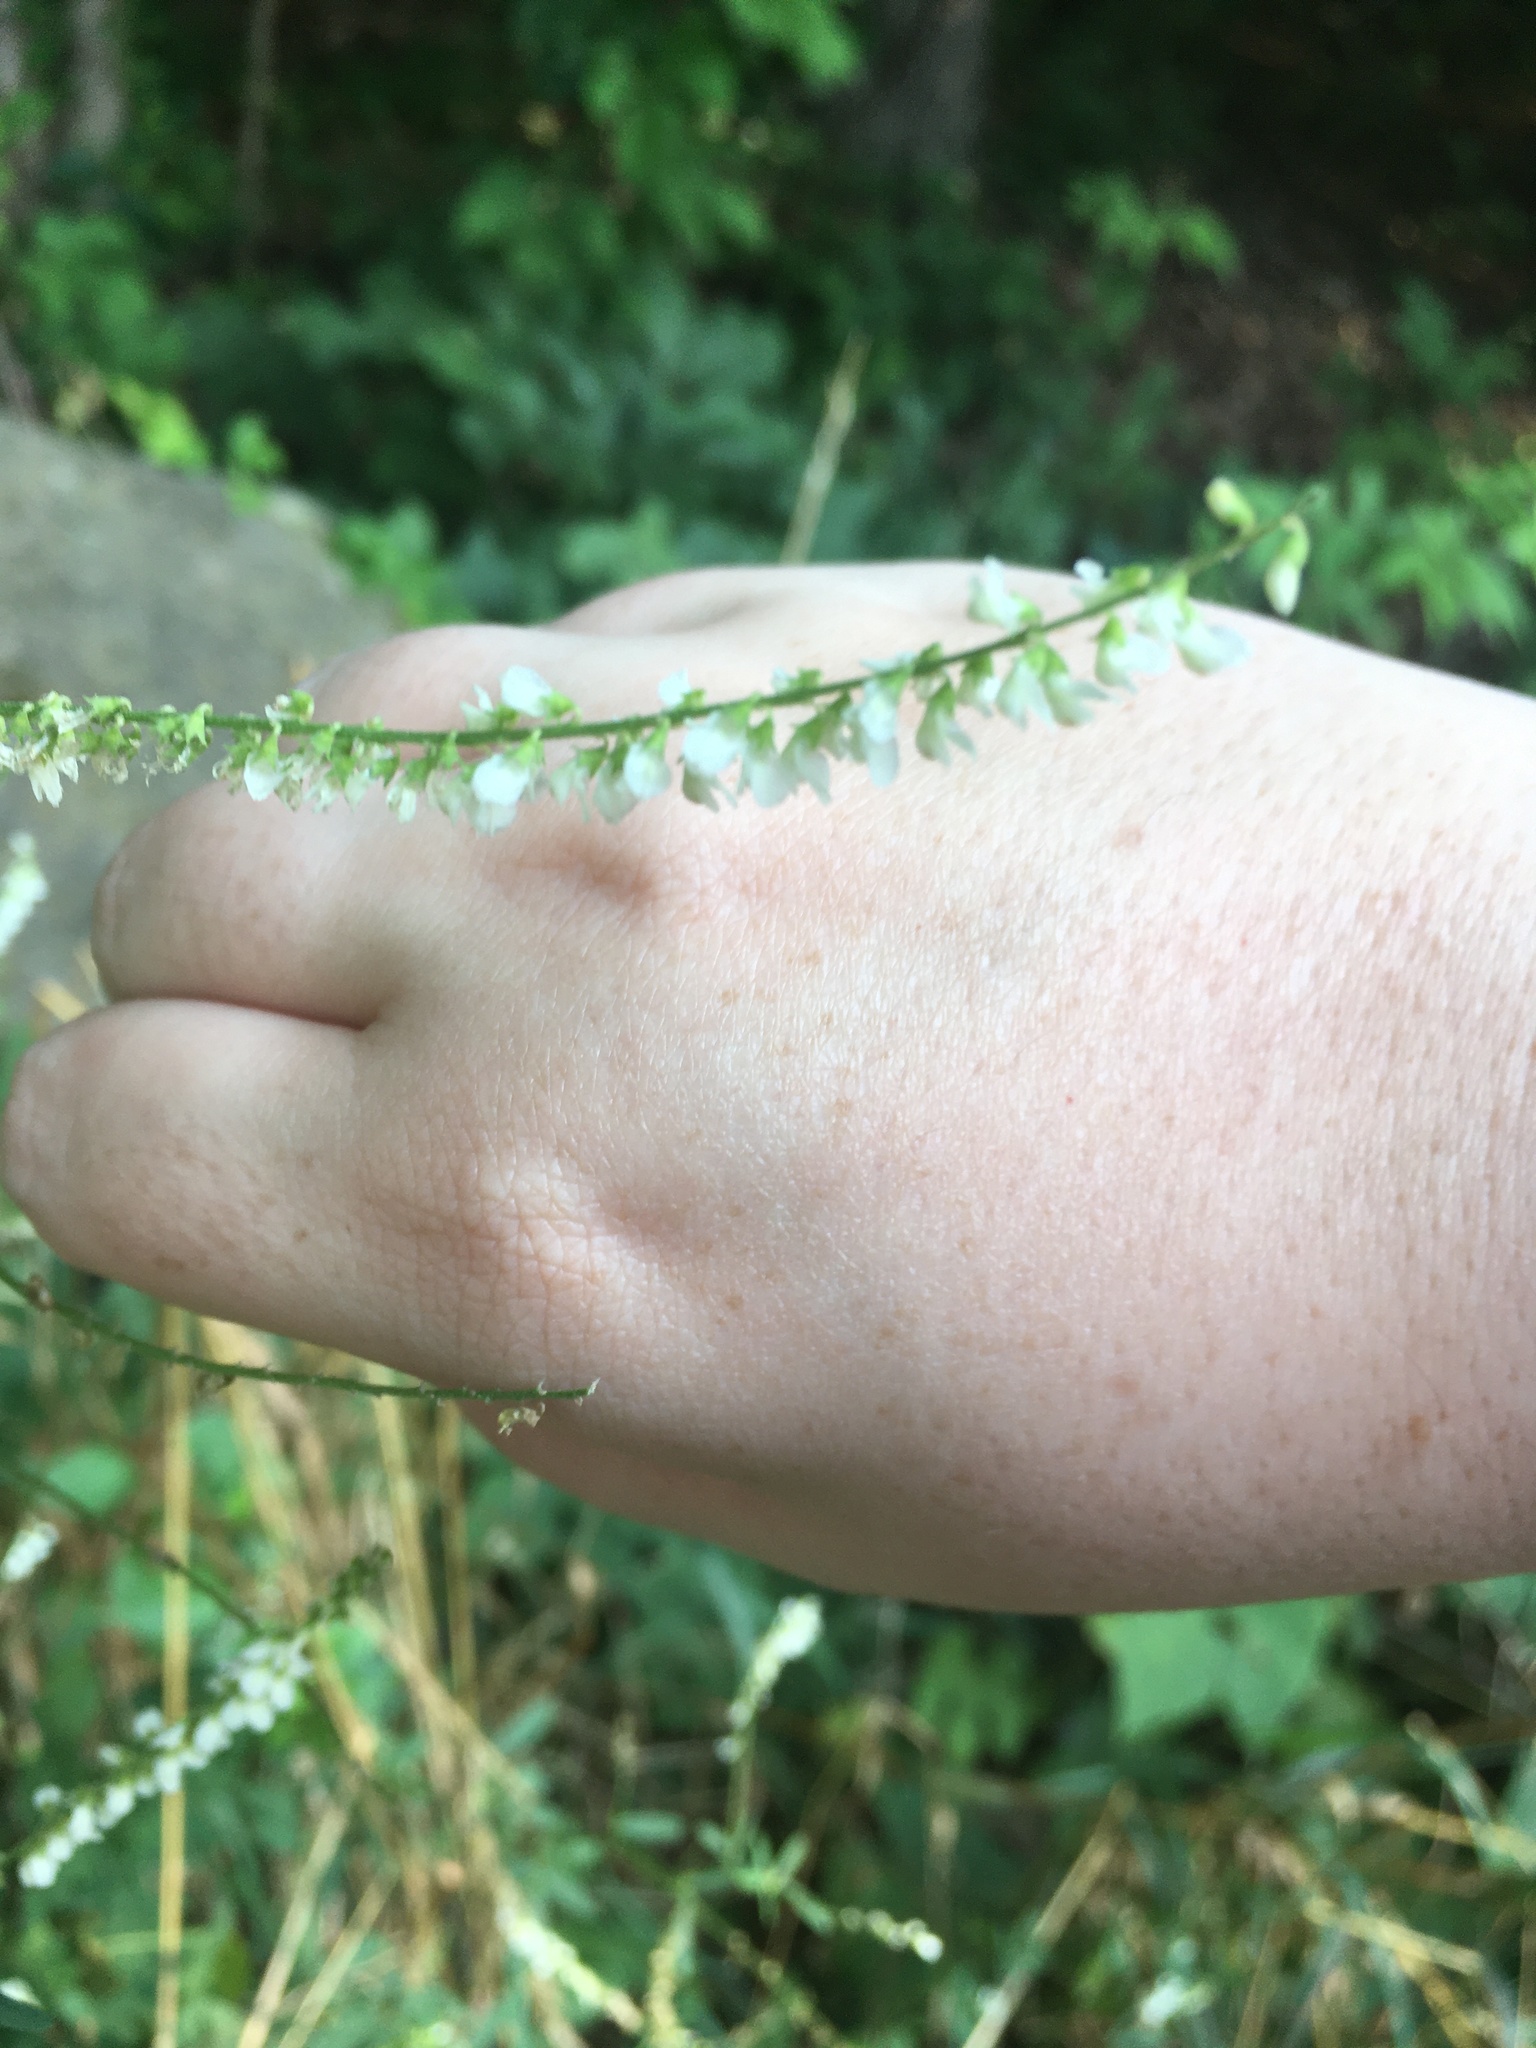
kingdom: Plantae
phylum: Tracheophyta
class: Magnoliopsida
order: Fabales
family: Fabaceae
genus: Melilotus
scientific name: Melilotus albus
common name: White melilot
